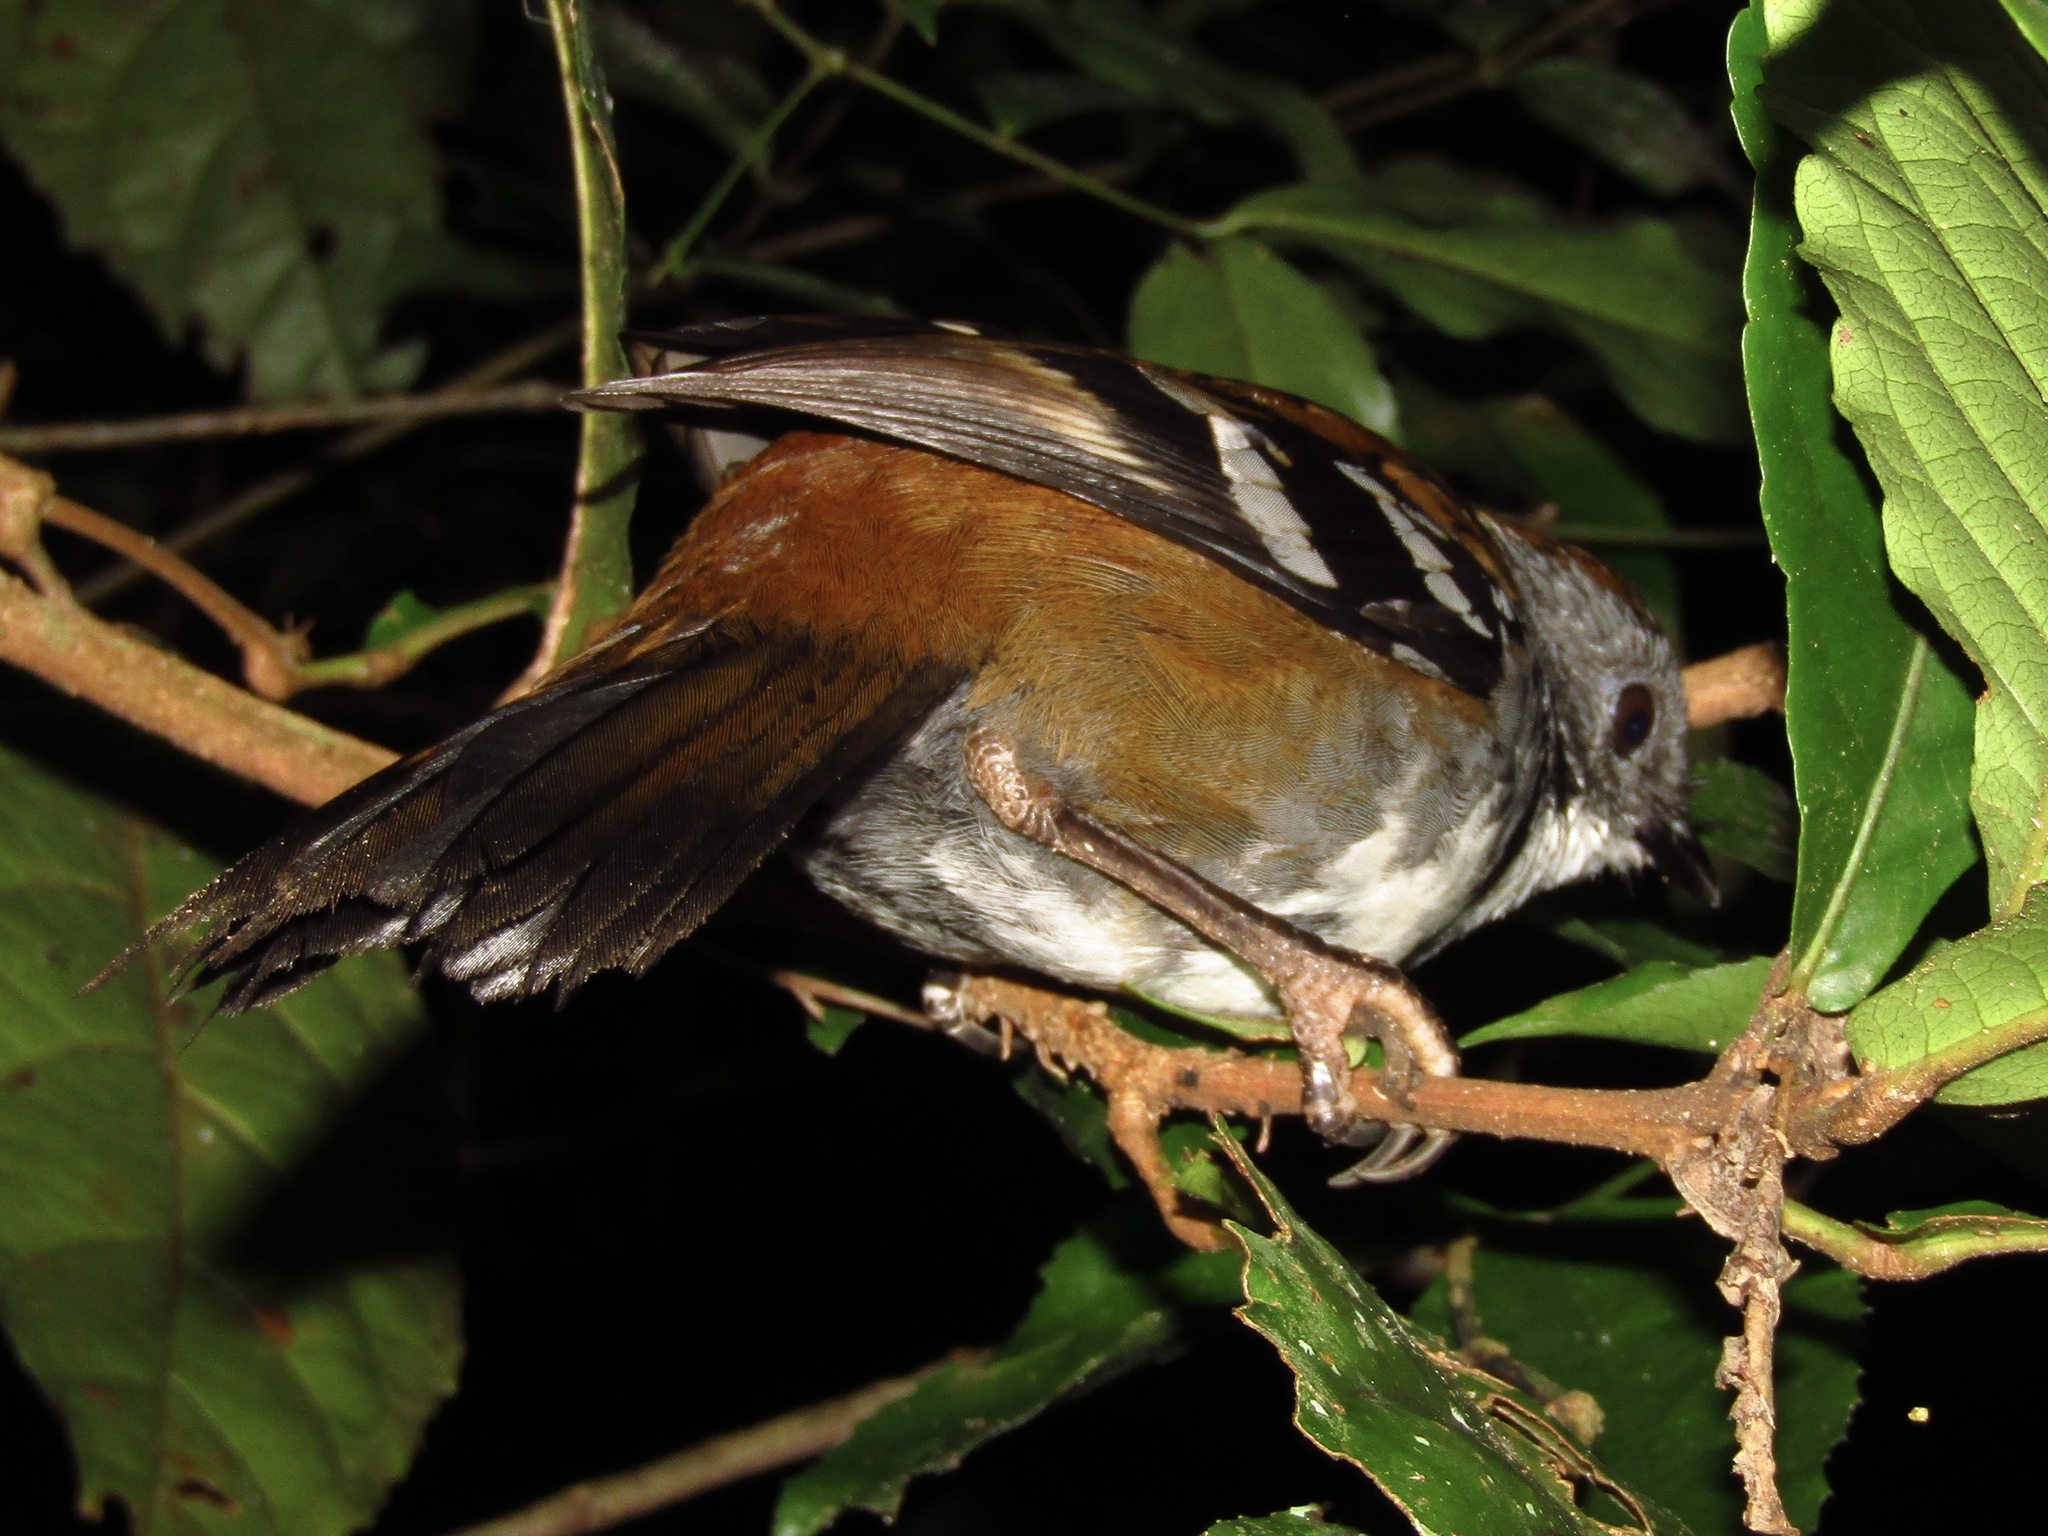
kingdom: Animalia
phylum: Chordata
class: Aves
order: Passeriformes
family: Orthonychidae
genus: Orthonyx
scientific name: Orthonyx temminckii
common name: Australian logrunner
